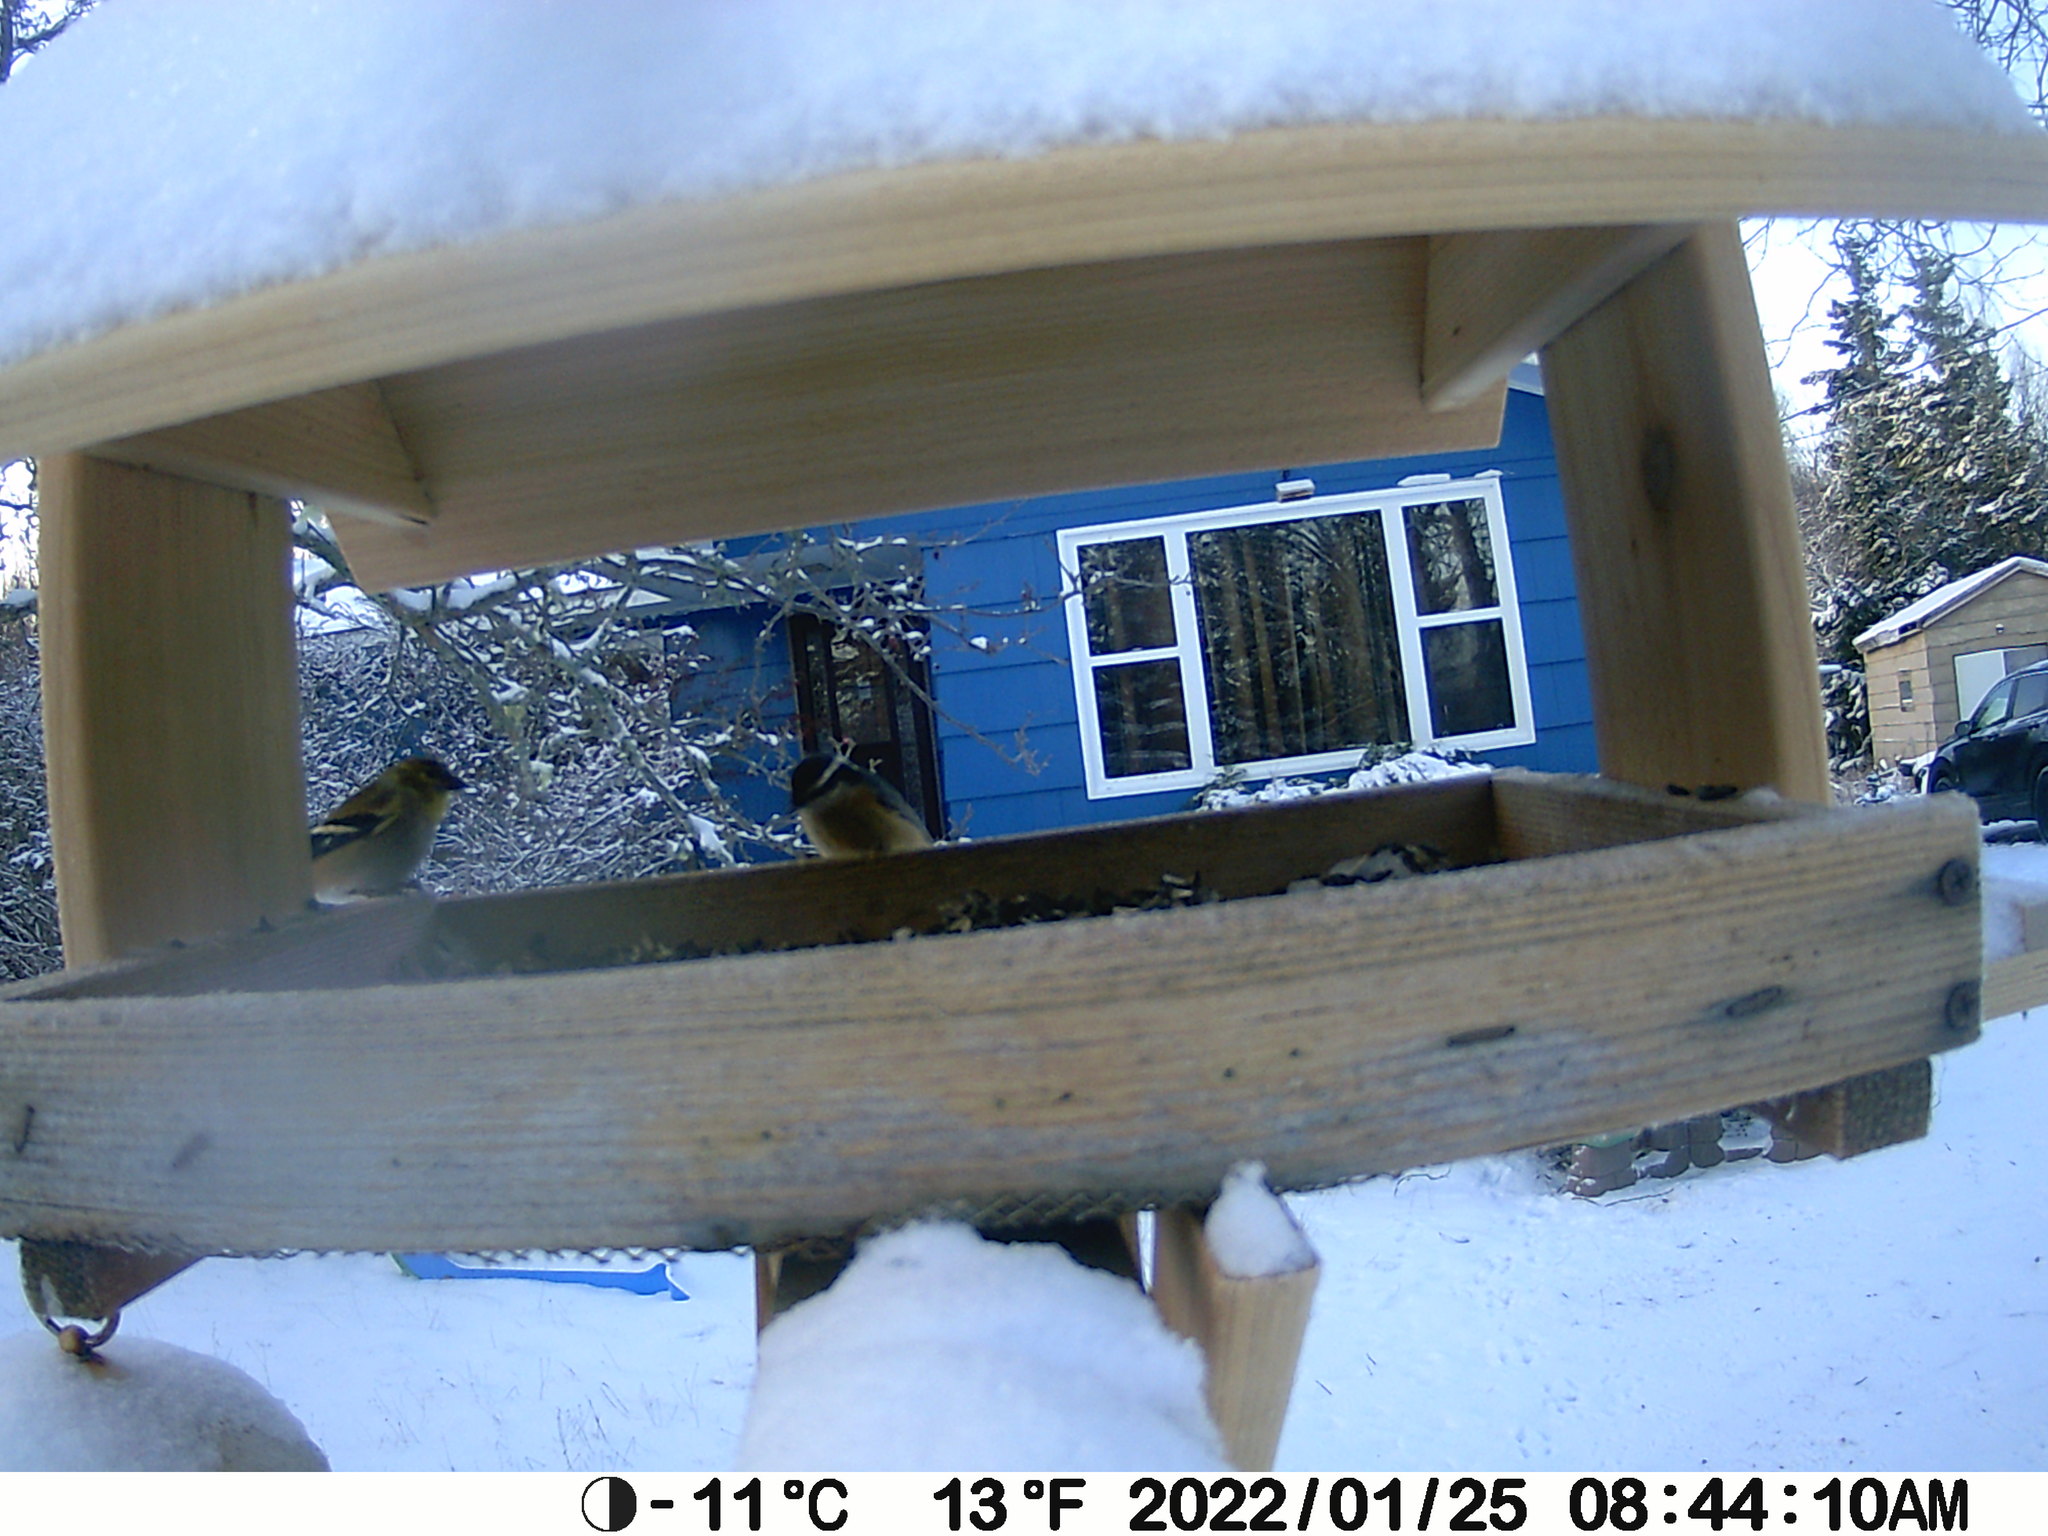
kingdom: Animalia
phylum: Chordata
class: Aves
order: Passeriformes
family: Sittidae
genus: Sitta
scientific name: Sitta canadensis
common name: Red-breasted nuthatch
